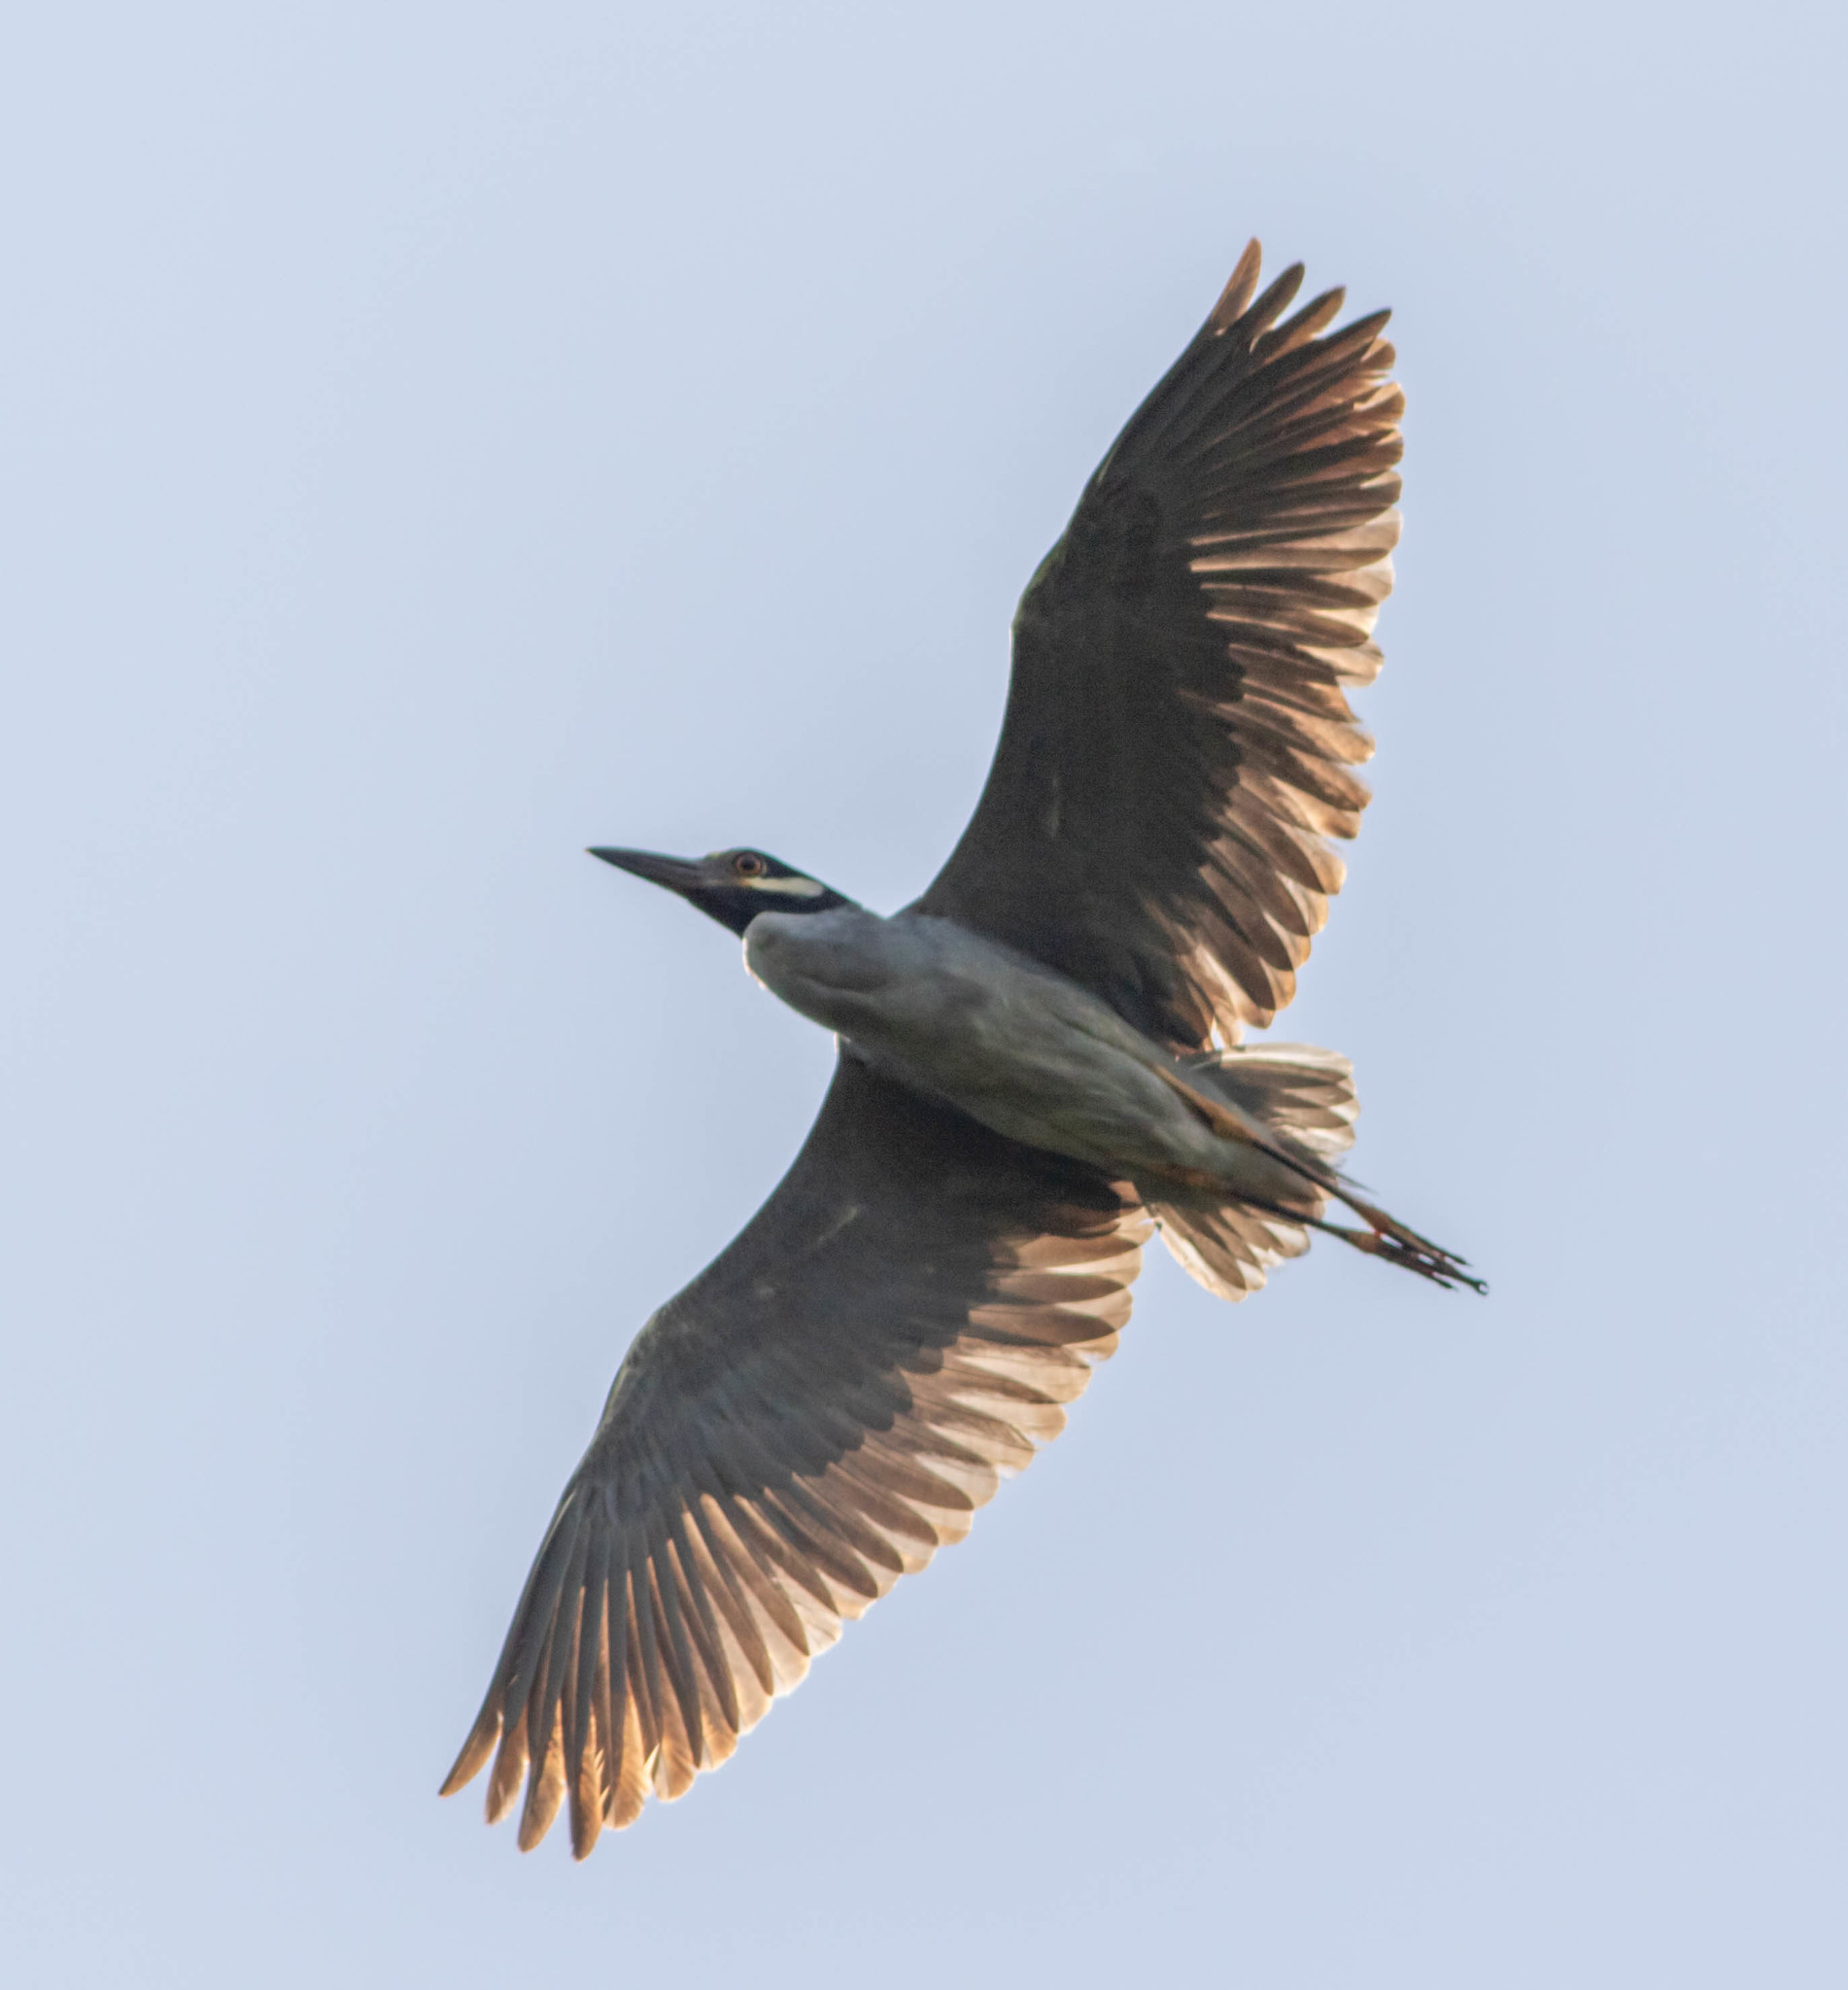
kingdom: Animalia
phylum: Chordata
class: Aves
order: Pelecaniformes
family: Ardeidae
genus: Nyctanassa
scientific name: Nyctanassa violacea
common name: Yellow-crowned night heron
